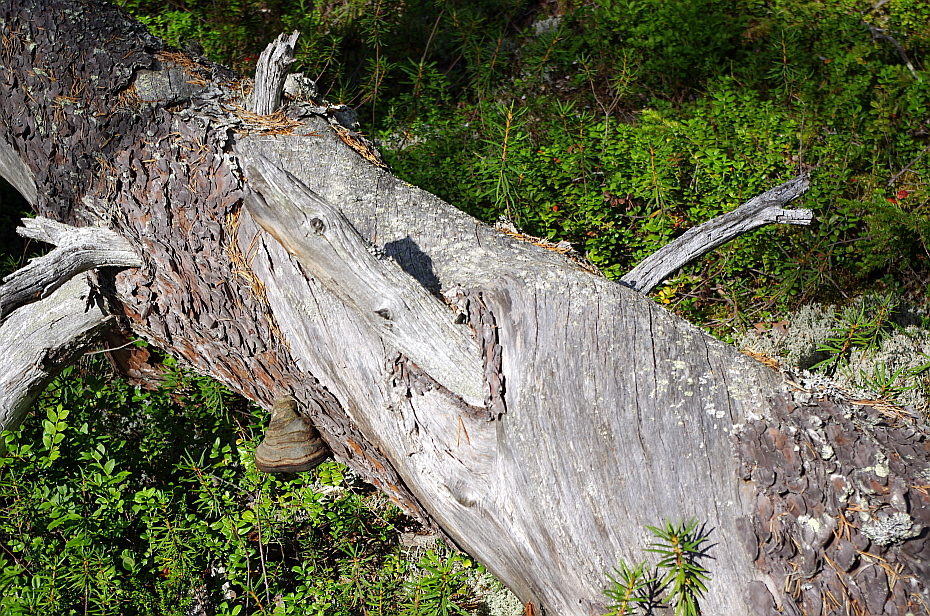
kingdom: Plantae
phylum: Tracheophyta
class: Pinopsida
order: Pinales
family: Pinaceae
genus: Pinus
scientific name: Pinus sylvestris
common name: Scots pine
